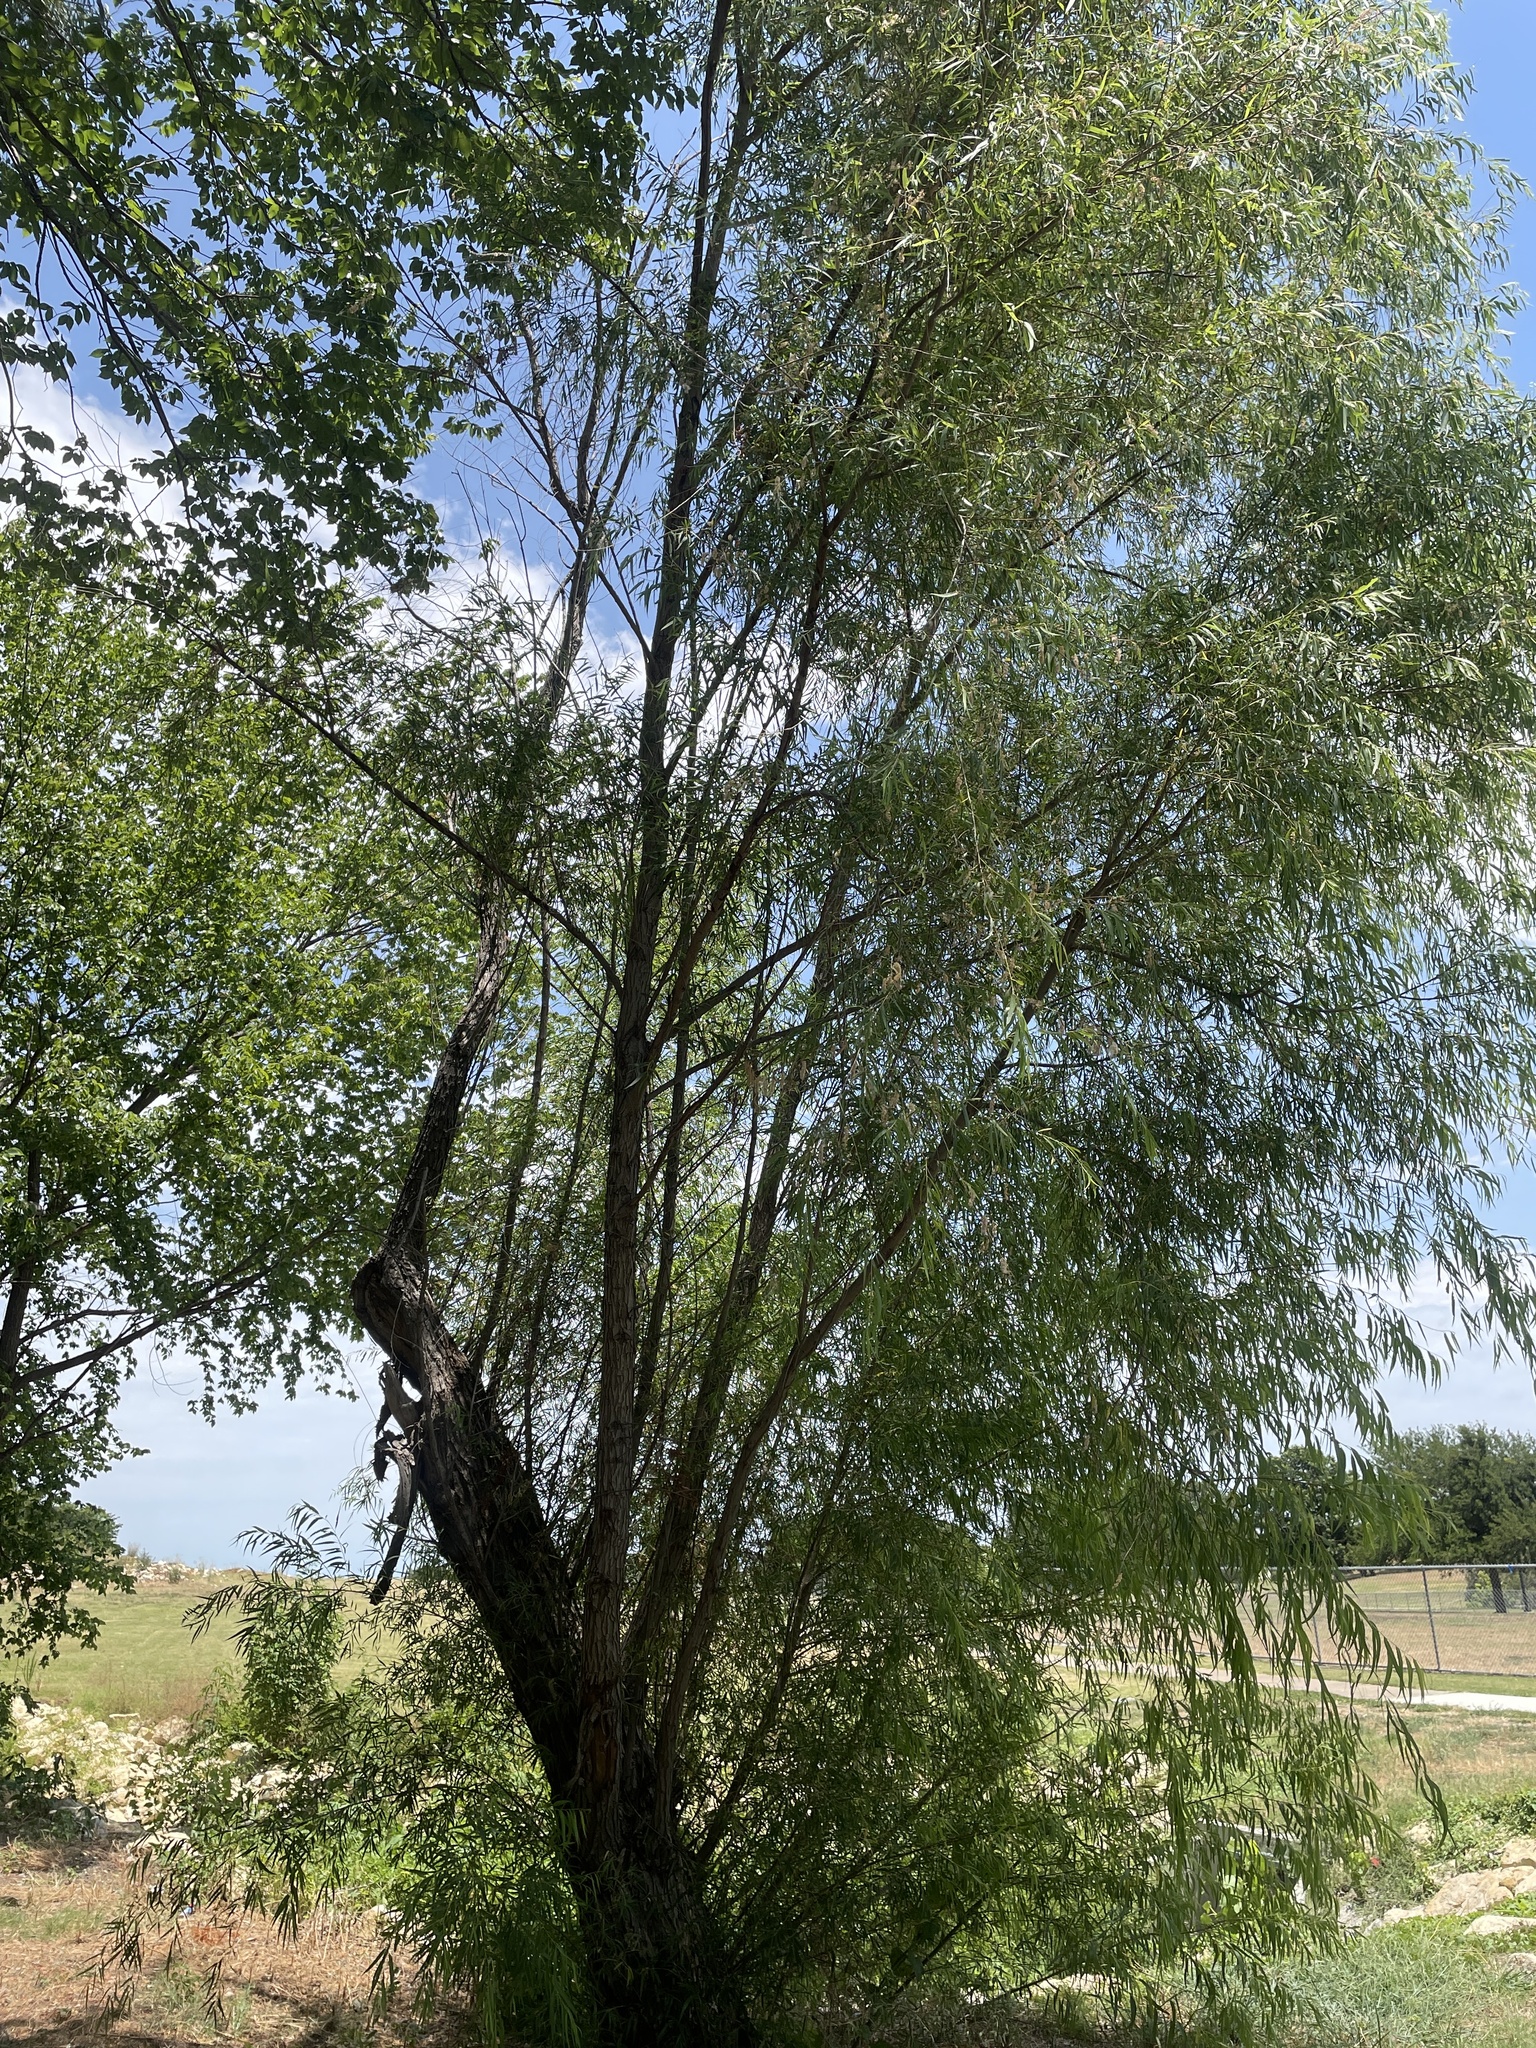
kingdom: Plantae
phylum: Tracheophyta
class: Magnoliopsida
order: Malpighiales
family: Salicaceae
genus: Salix
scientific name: Salix nigra
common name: Black willow
